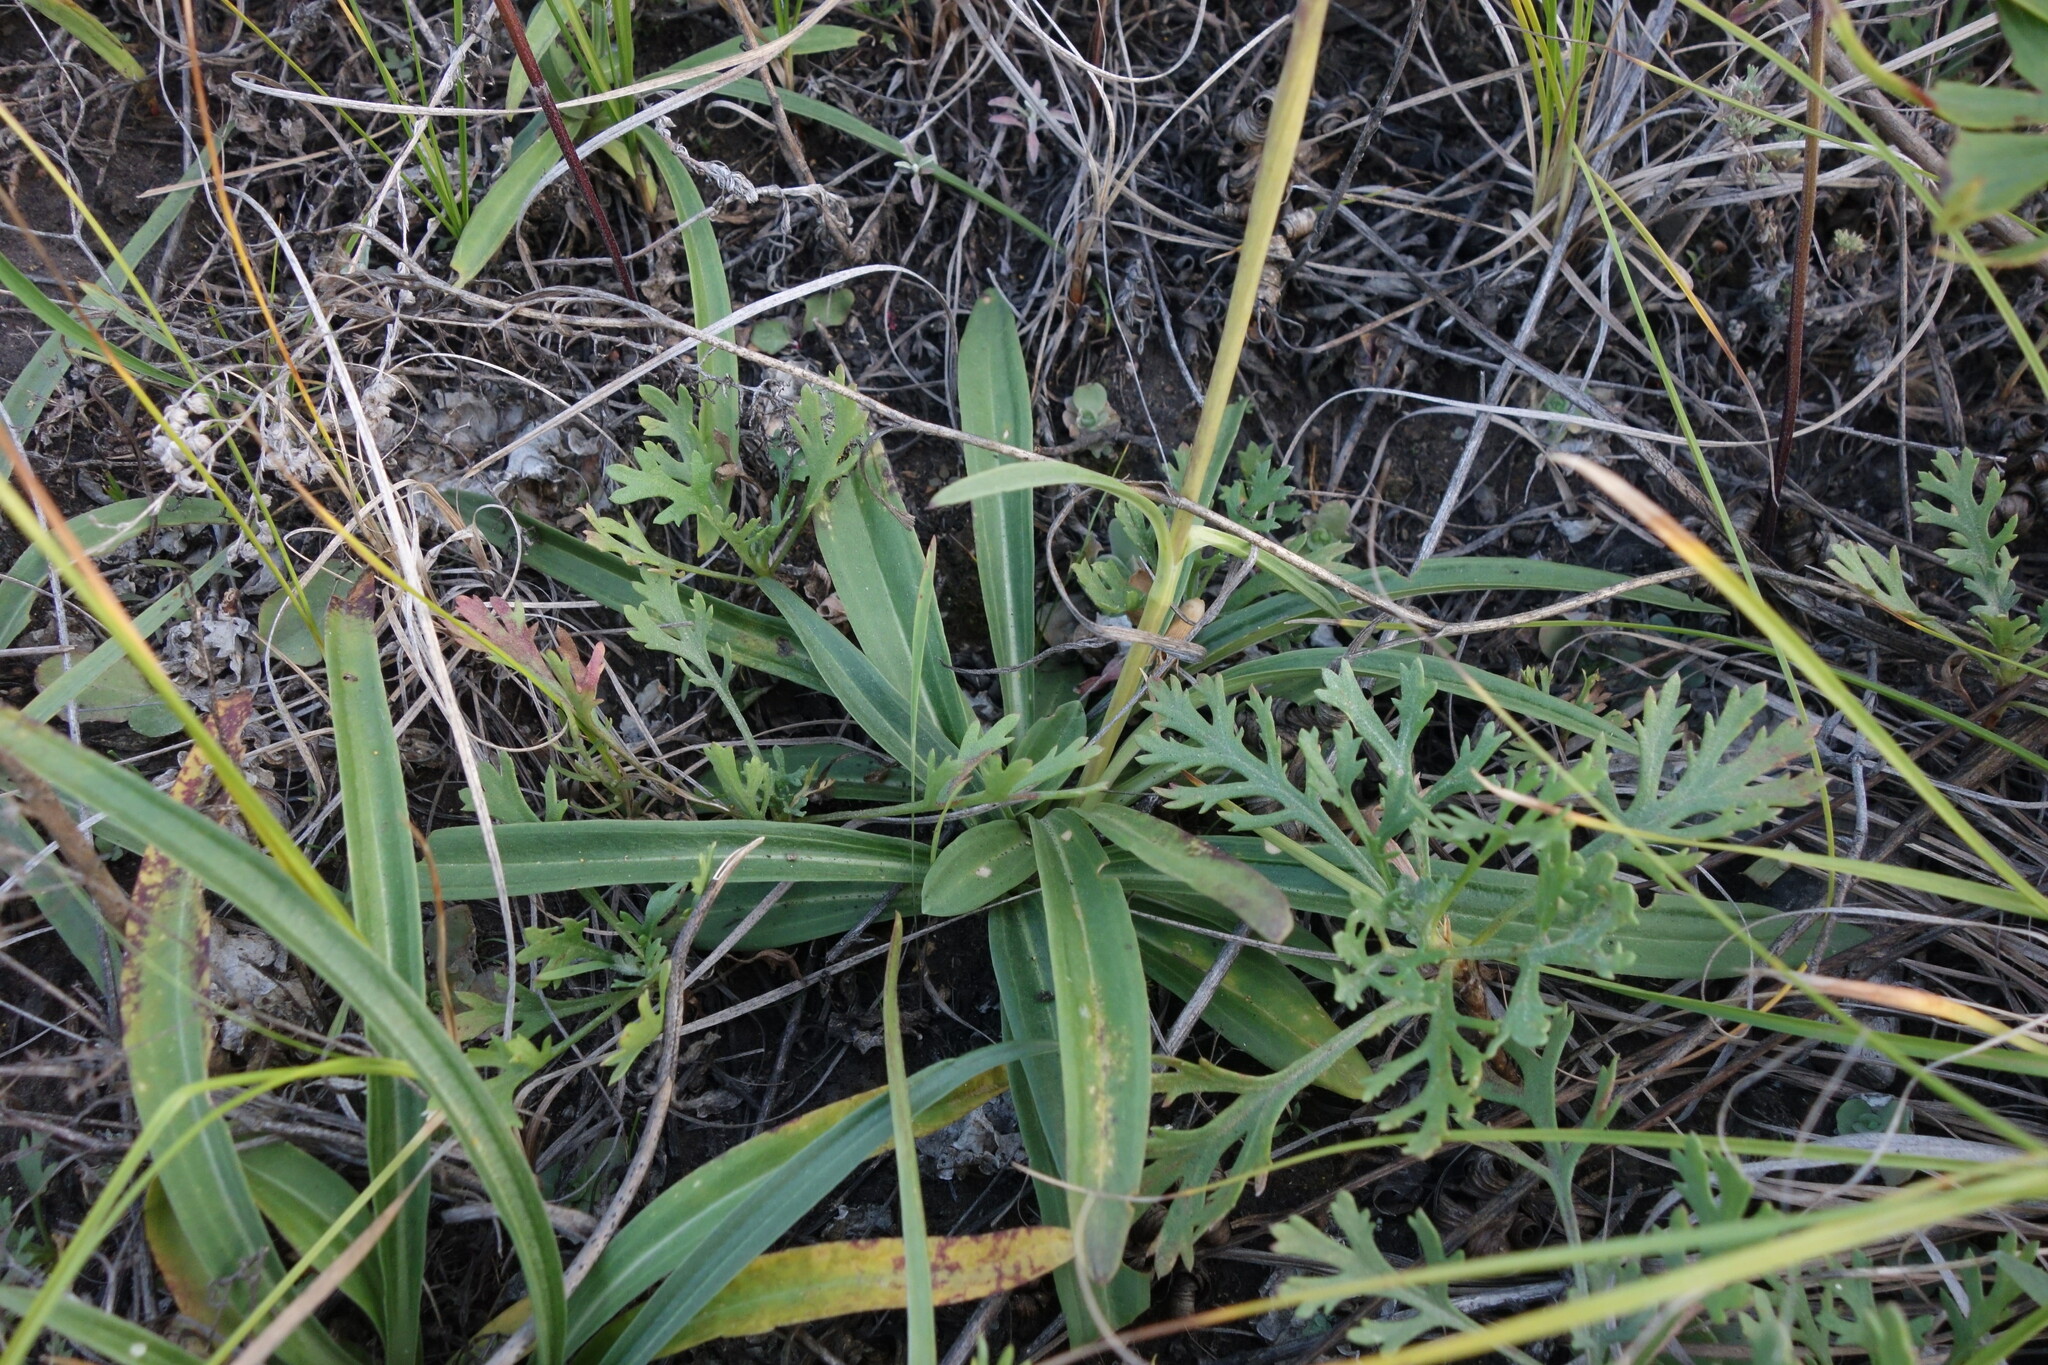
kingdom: Plantae
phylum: Tracheophyta
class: Magnoliopsida
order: Gentianales
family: Gentianaceae
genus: Gentiana
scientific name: Gentiana decumbens
